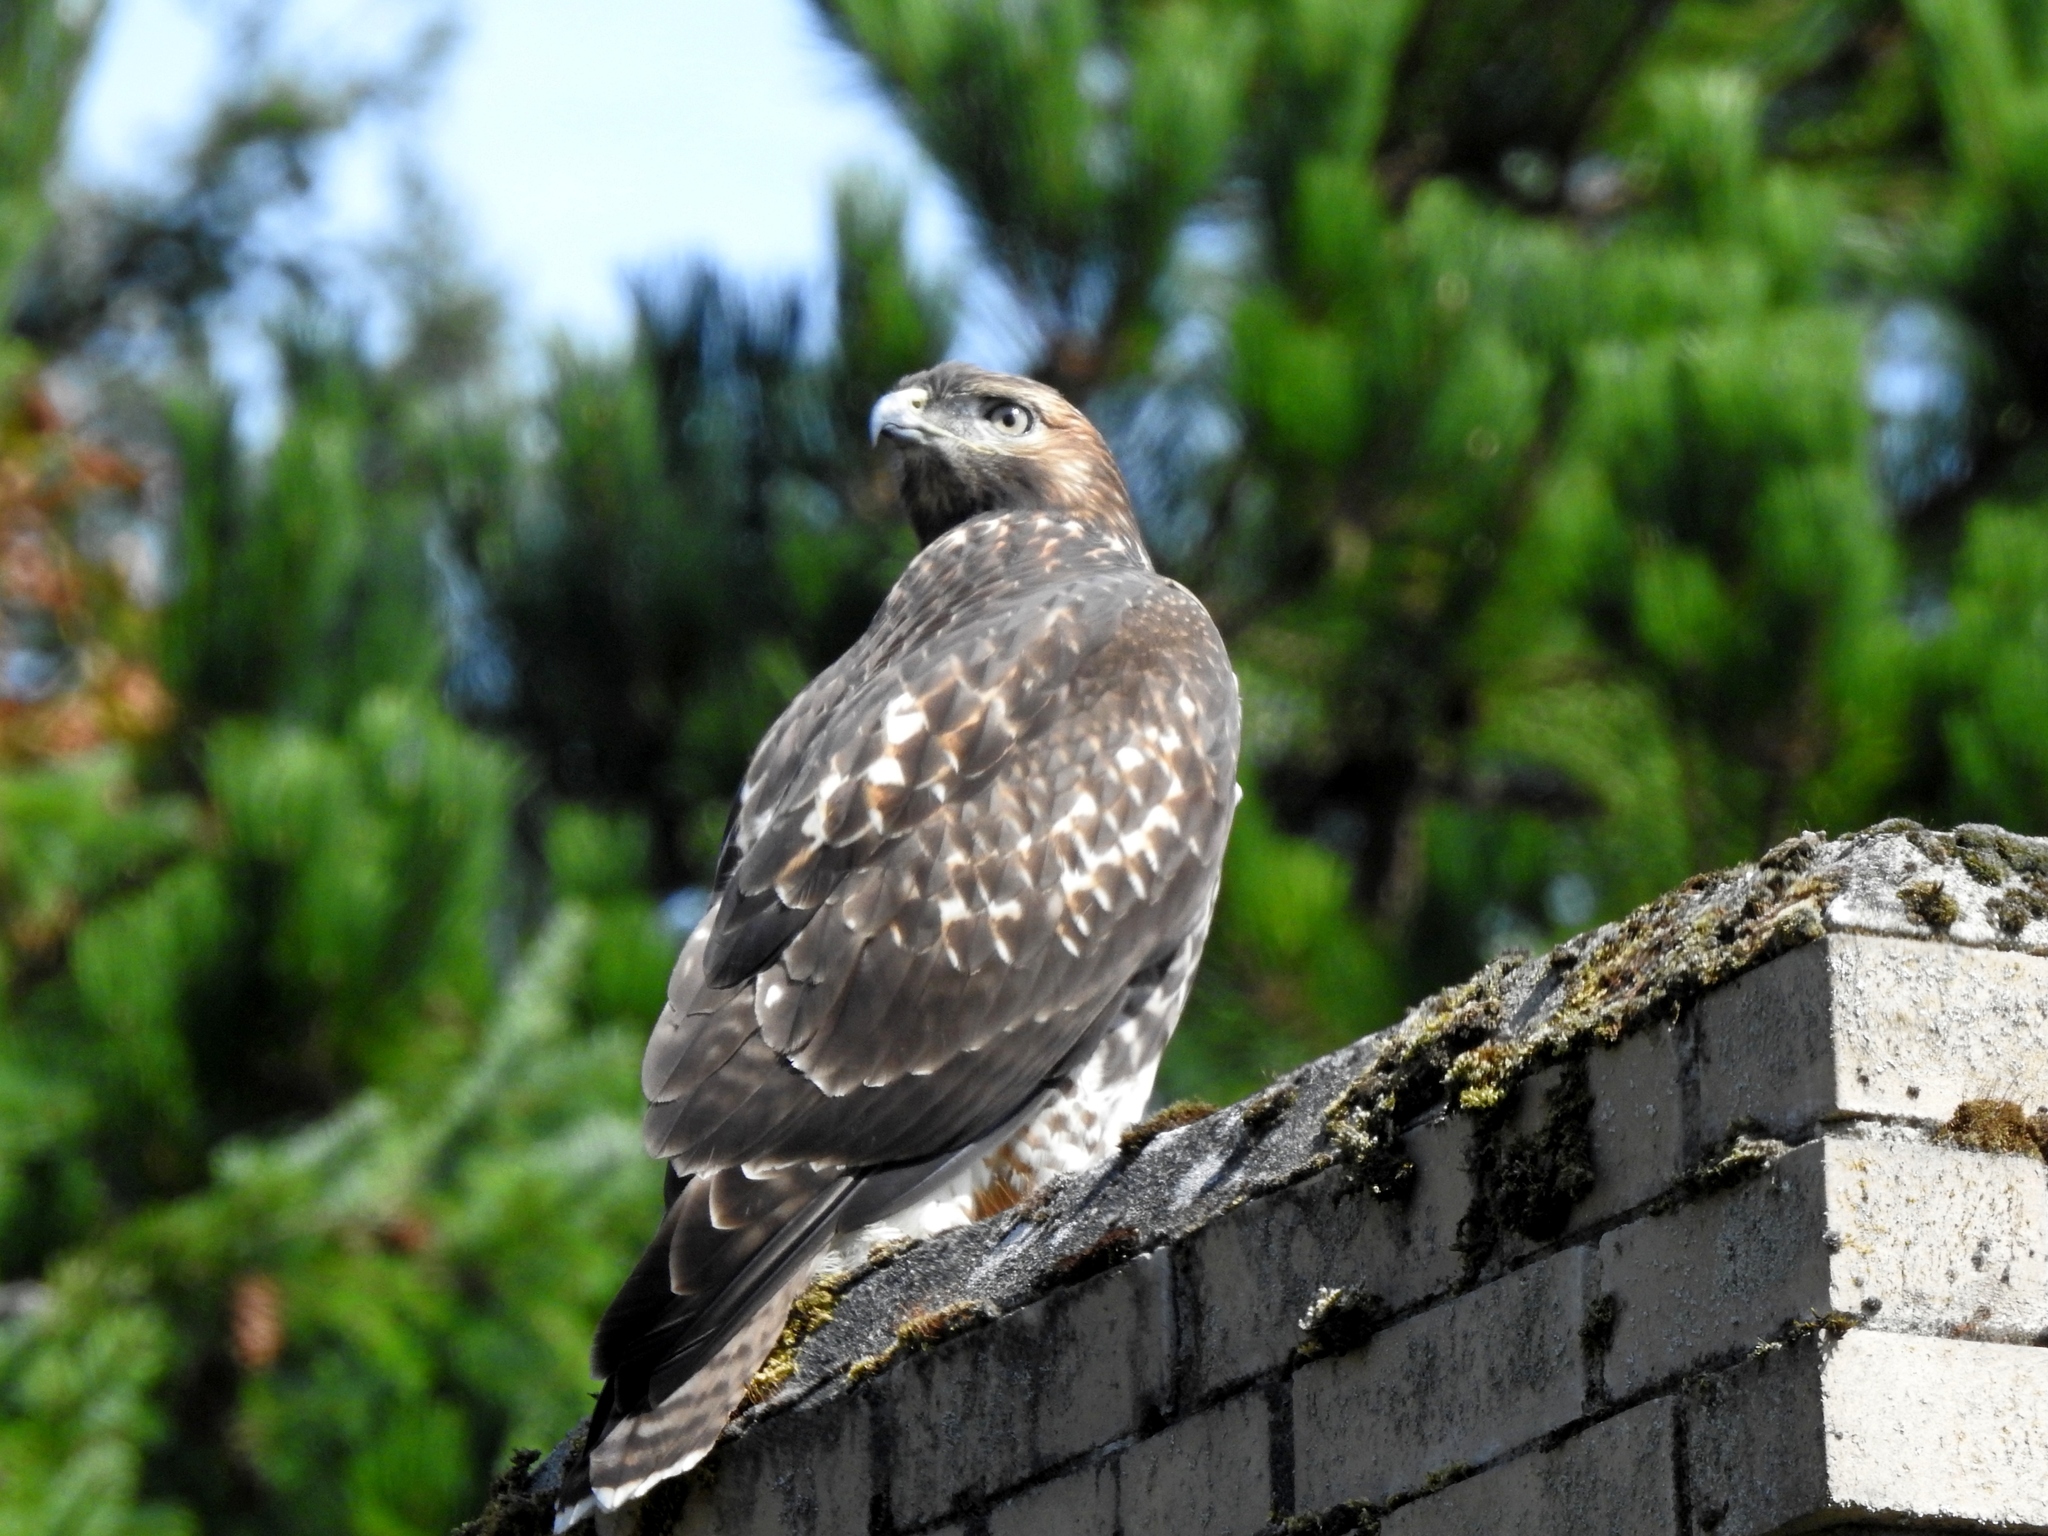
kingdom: Animalia
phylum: Chordata
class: Aves
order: Accipitriformes
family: Accipitridae
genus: Buteo
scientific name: Buteo jamaicensis
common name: Red-tailed hawk
